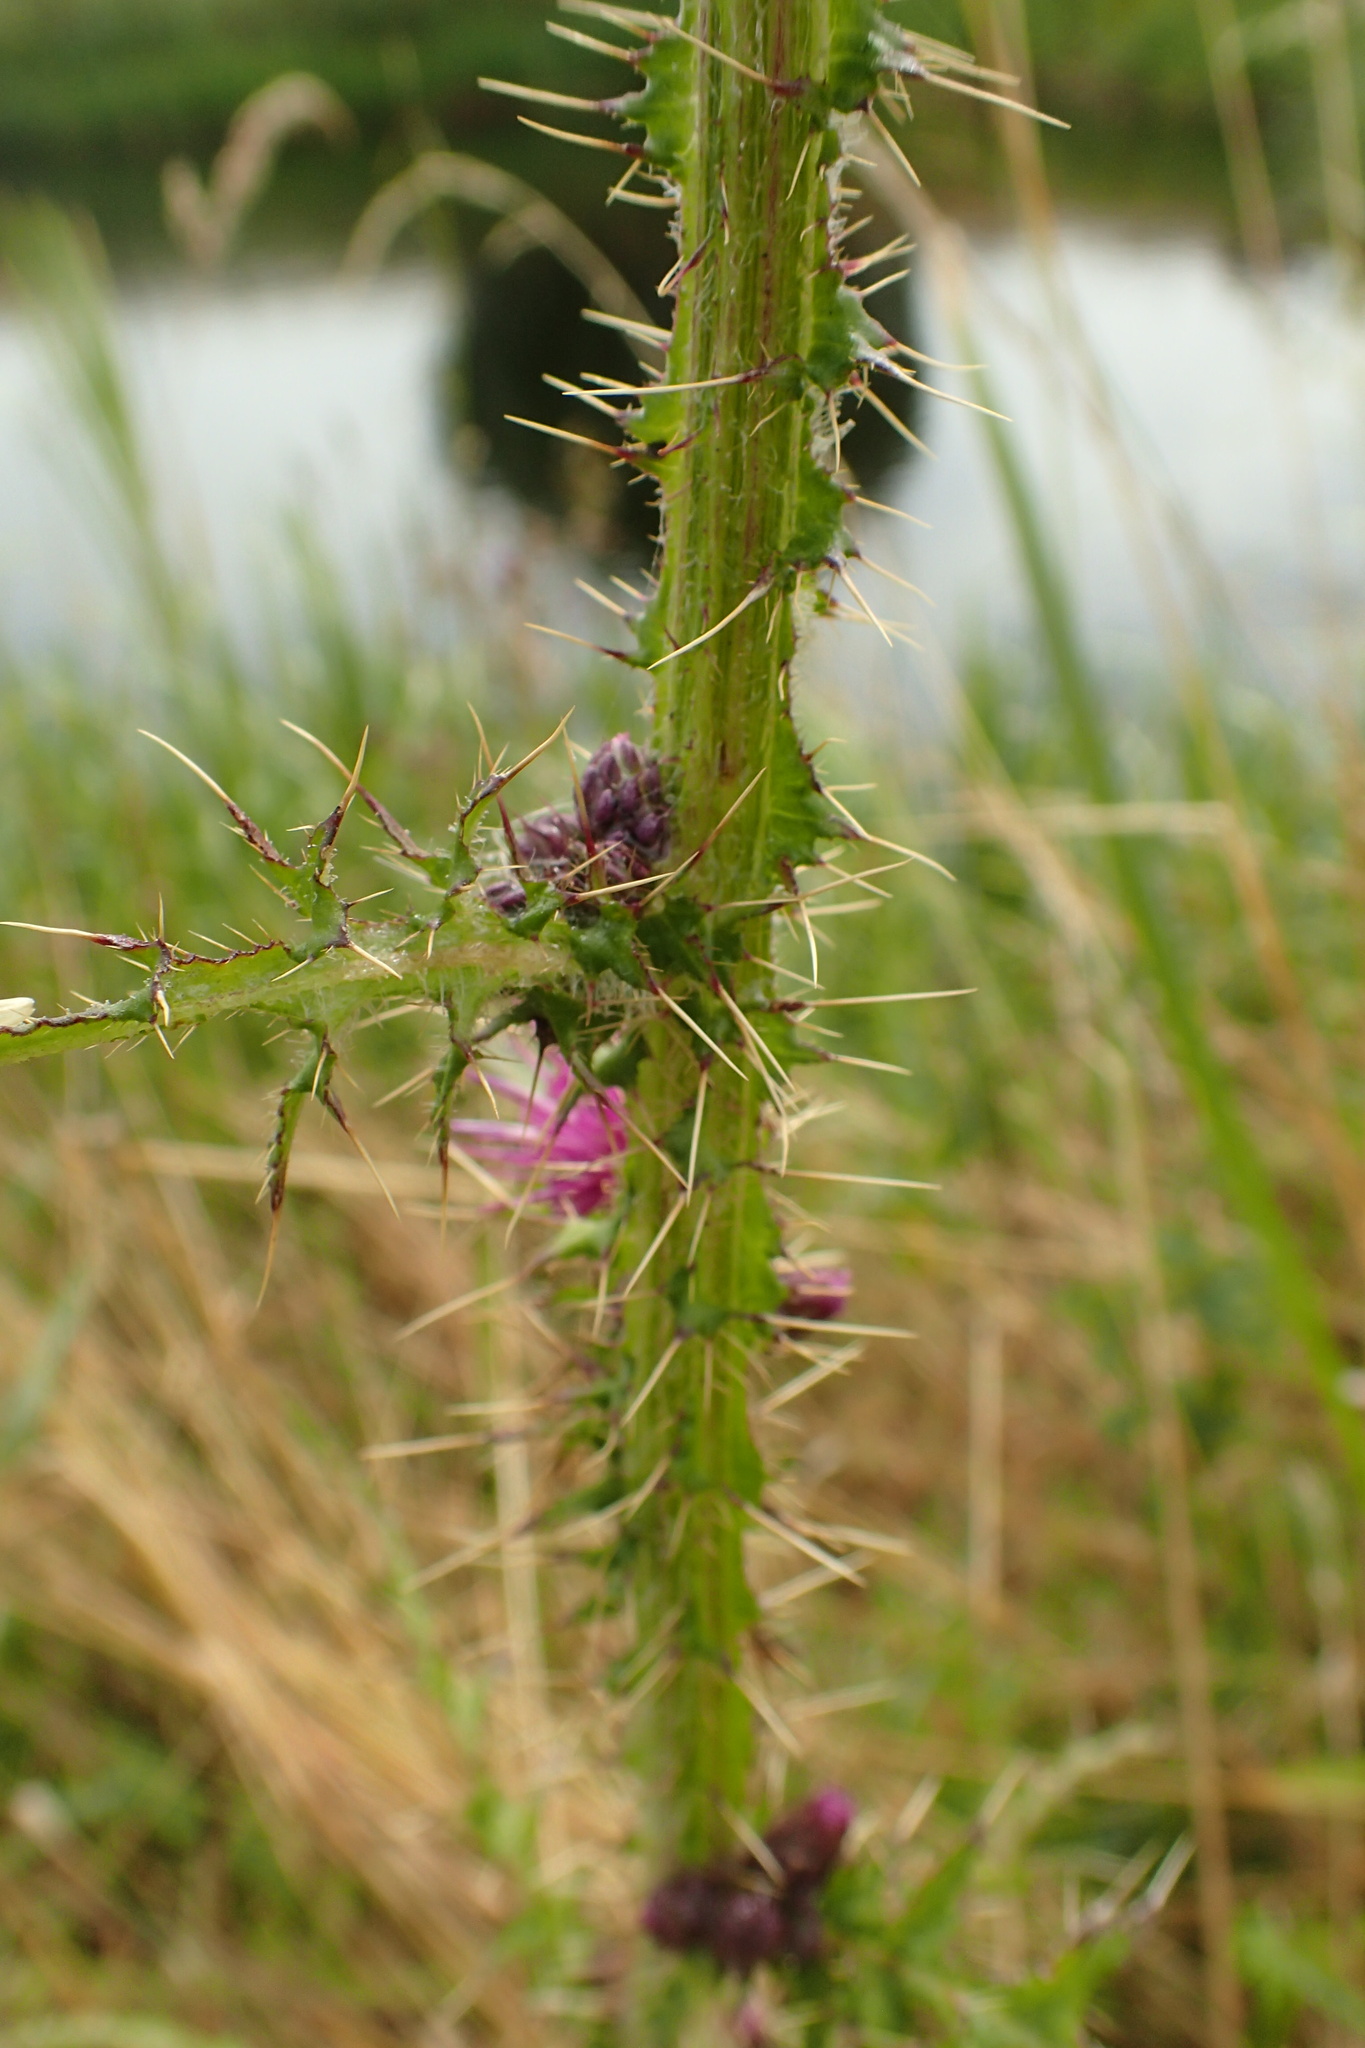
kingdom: Plantae
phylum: Tracheophyta
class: Magnoliopsida
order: Asterales
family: Asteraceae
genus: Cirsium
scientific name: Cirsium palustre
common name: Marsh thistle
